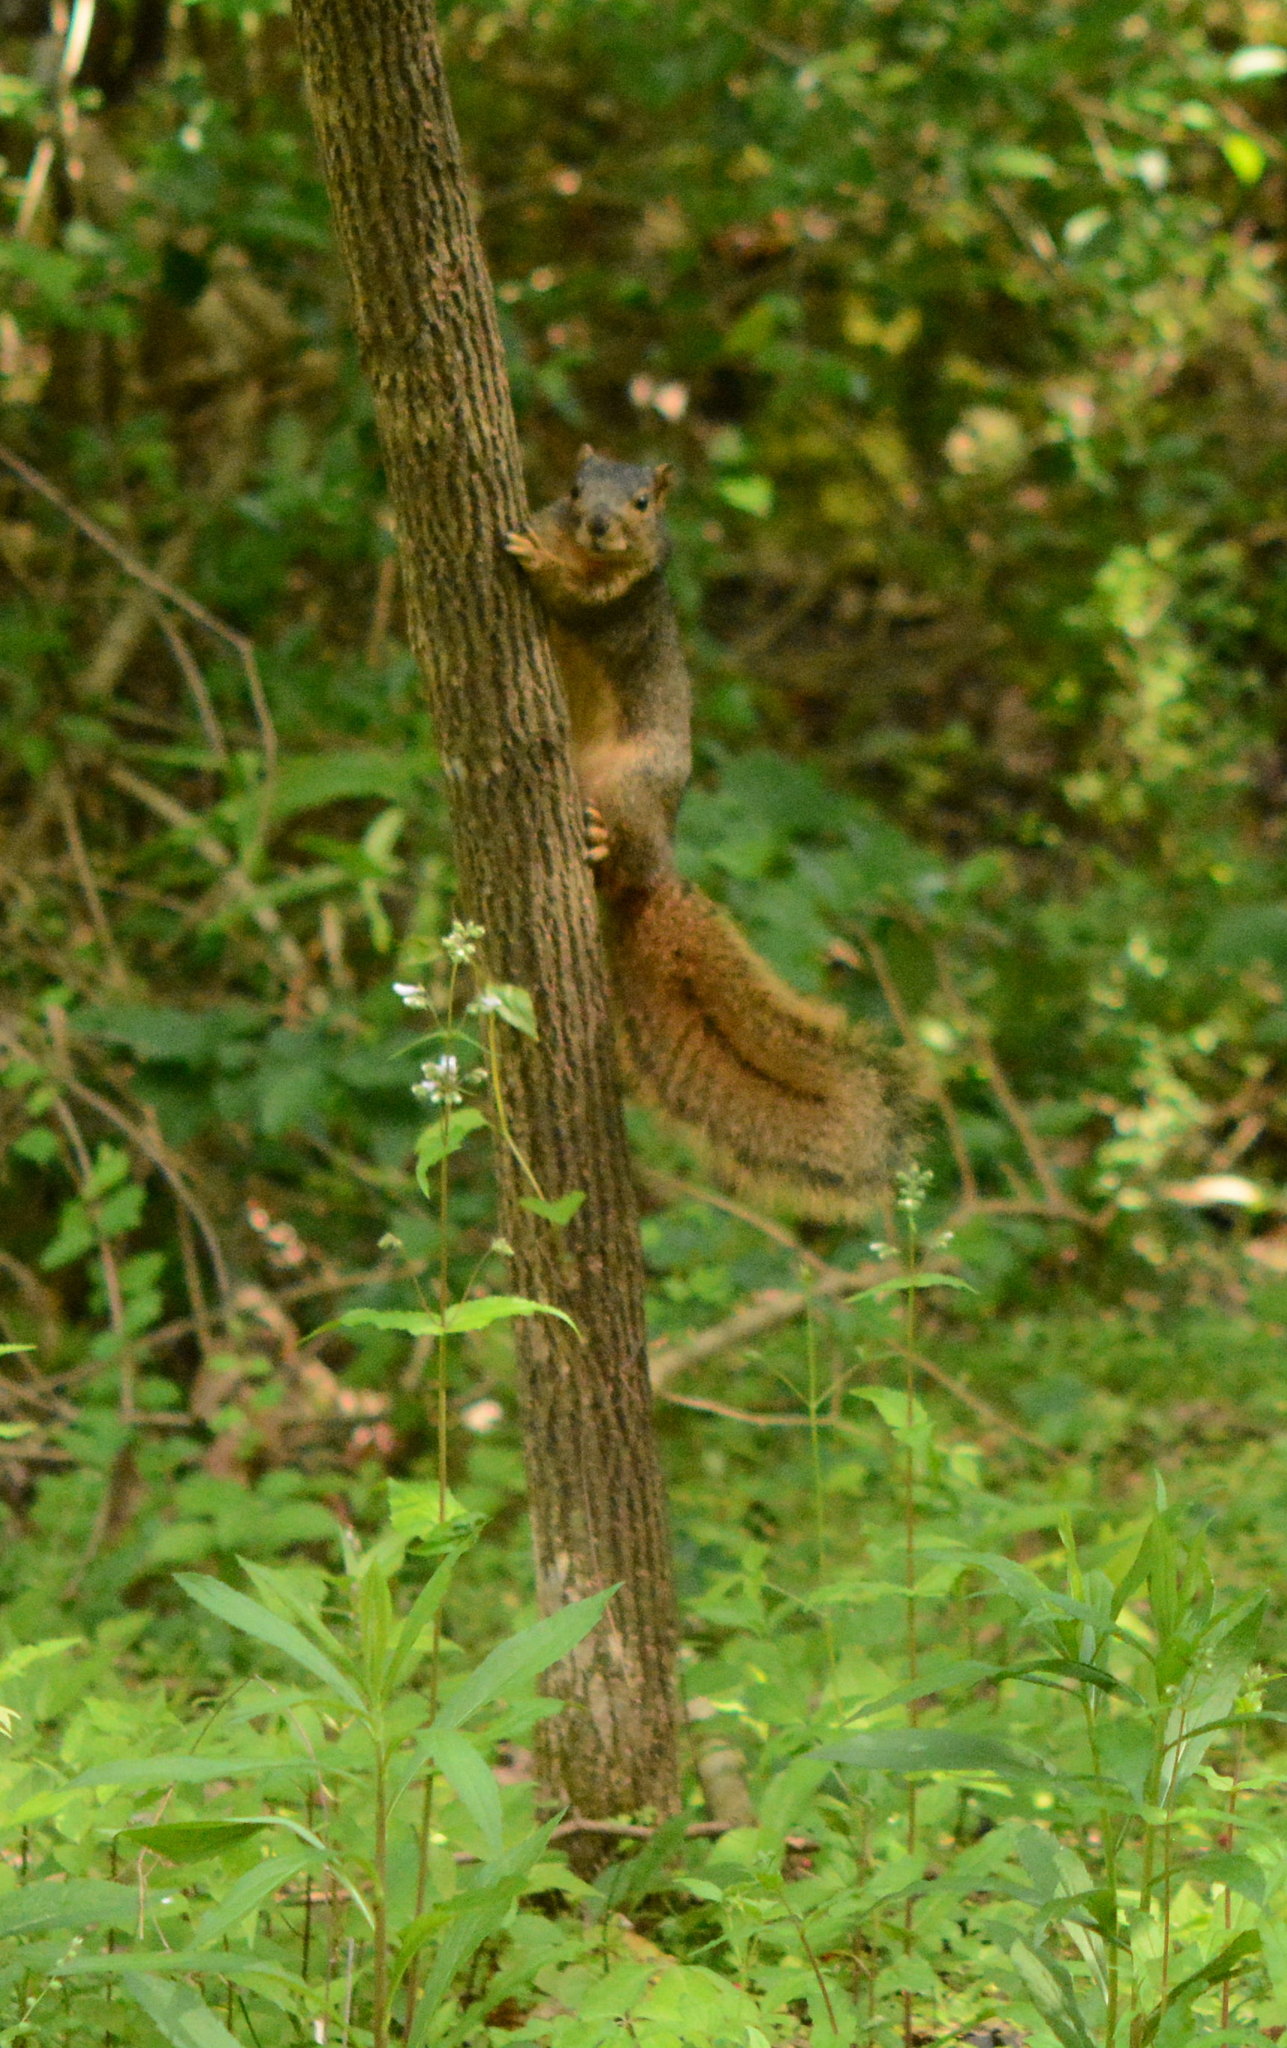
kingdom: Animalia
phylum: Chordata
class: Mammalia
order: Rodentia
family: Sciuridae
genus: Sciurus
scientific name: Sciurus niger
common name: Fox squirrel
